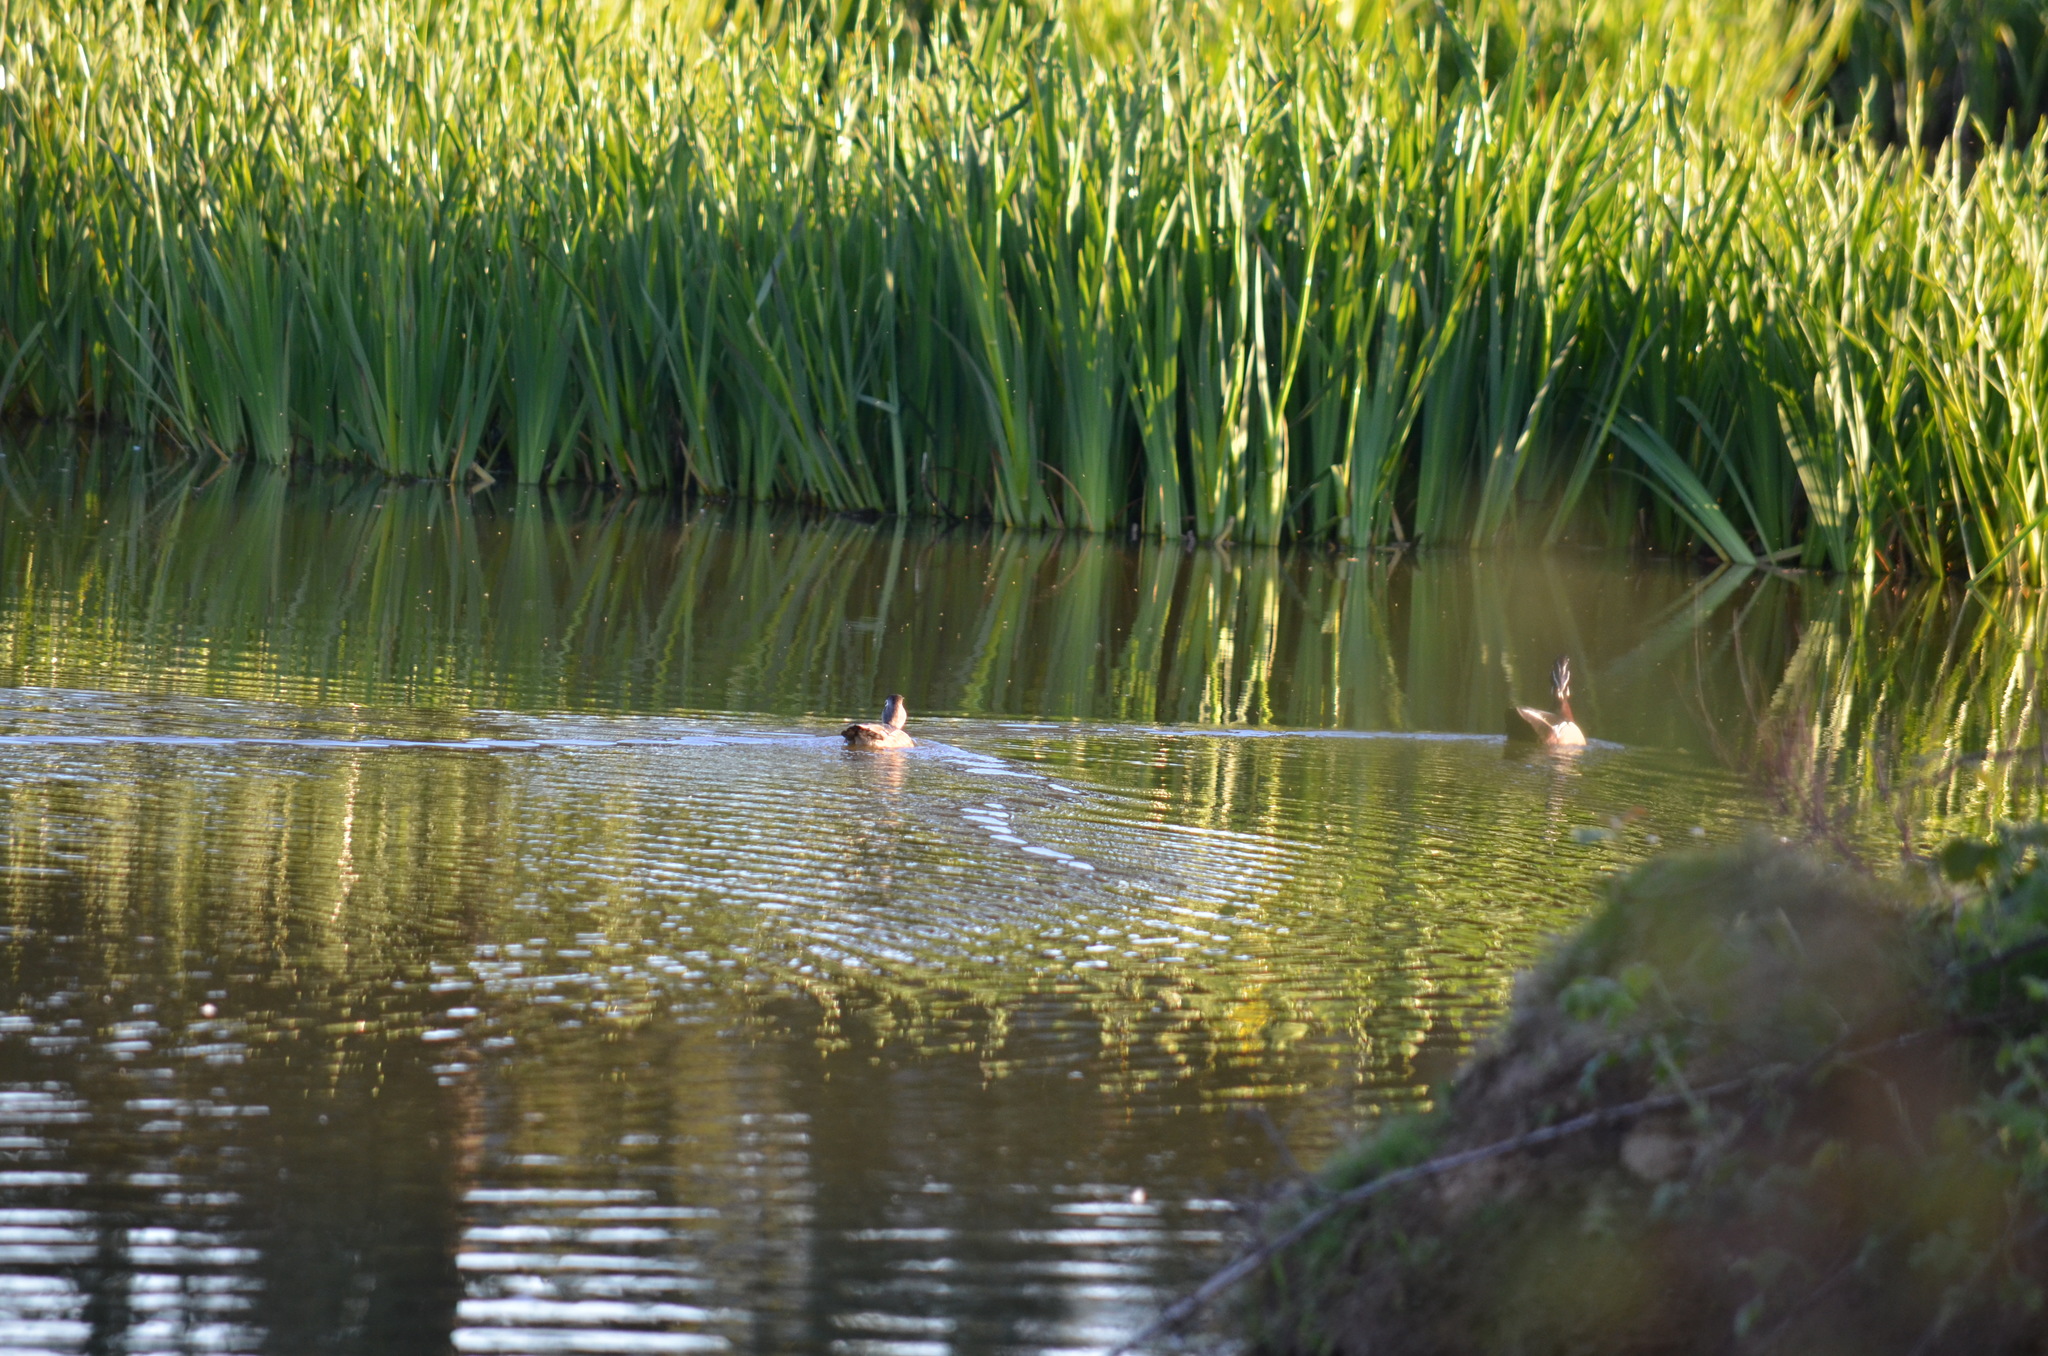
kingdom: Animalia
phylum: Chordata
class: Aves
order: Anseriformes
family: Anatidae
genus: Aix
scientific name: Aix sponsa
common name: Wood duck
